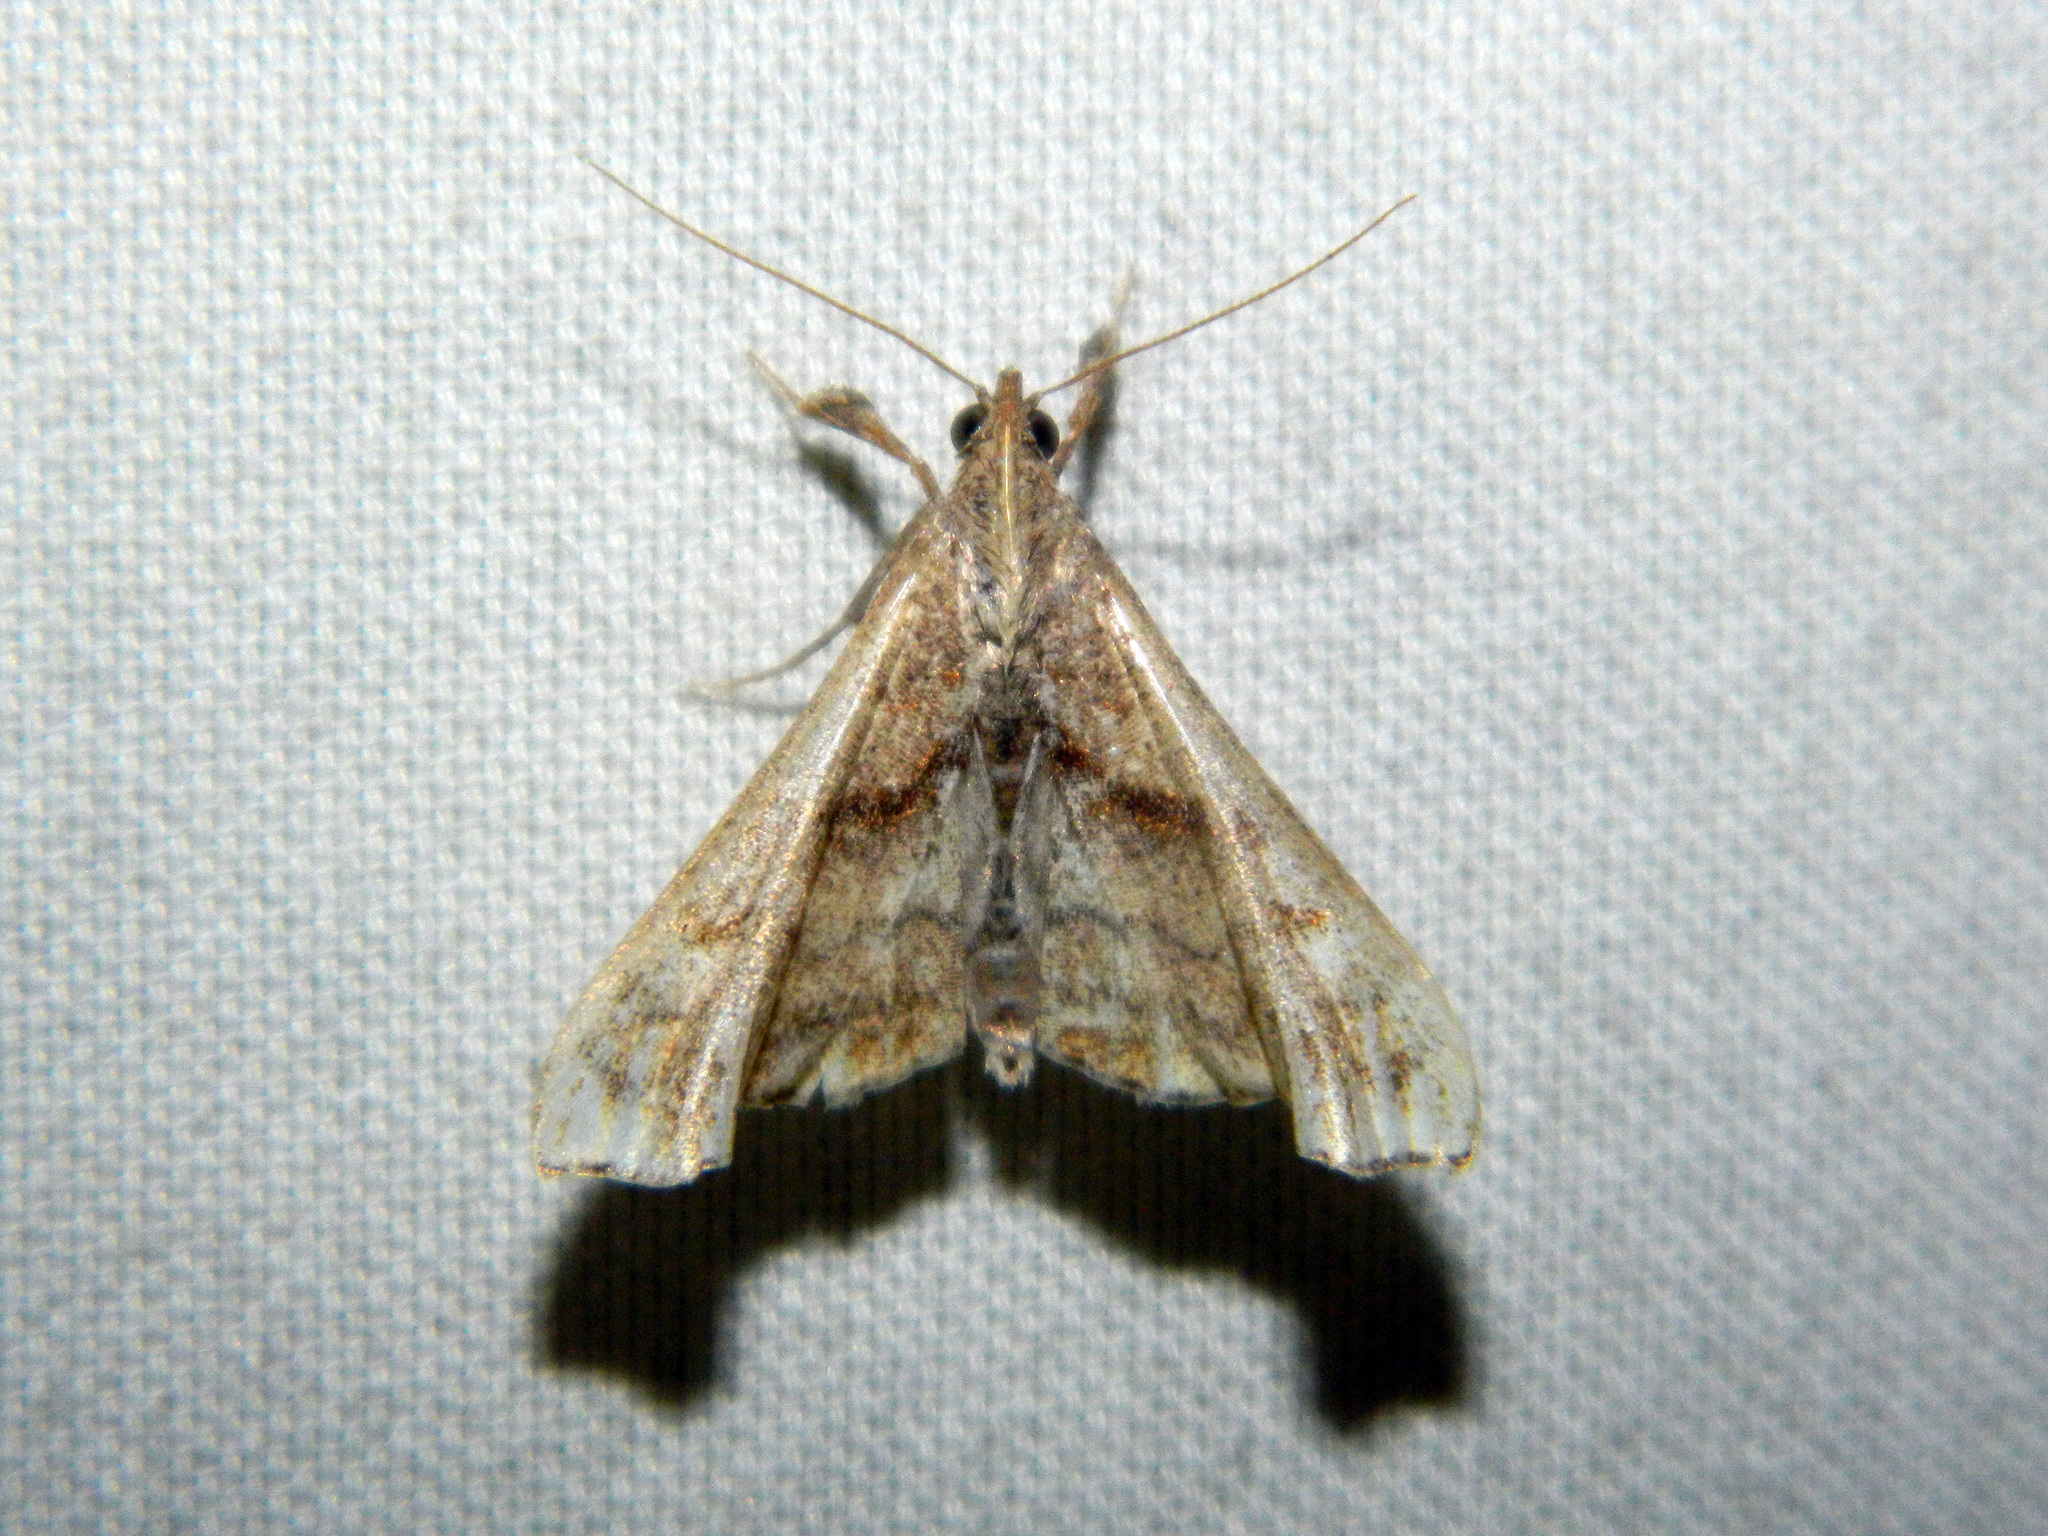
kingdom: Animalia
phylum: Arthropoda
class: Insecta
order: Lepidoptera
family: Erebidae
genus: Palthis
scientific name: Palthis angulalis
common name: Dark-spotted palthis moth
